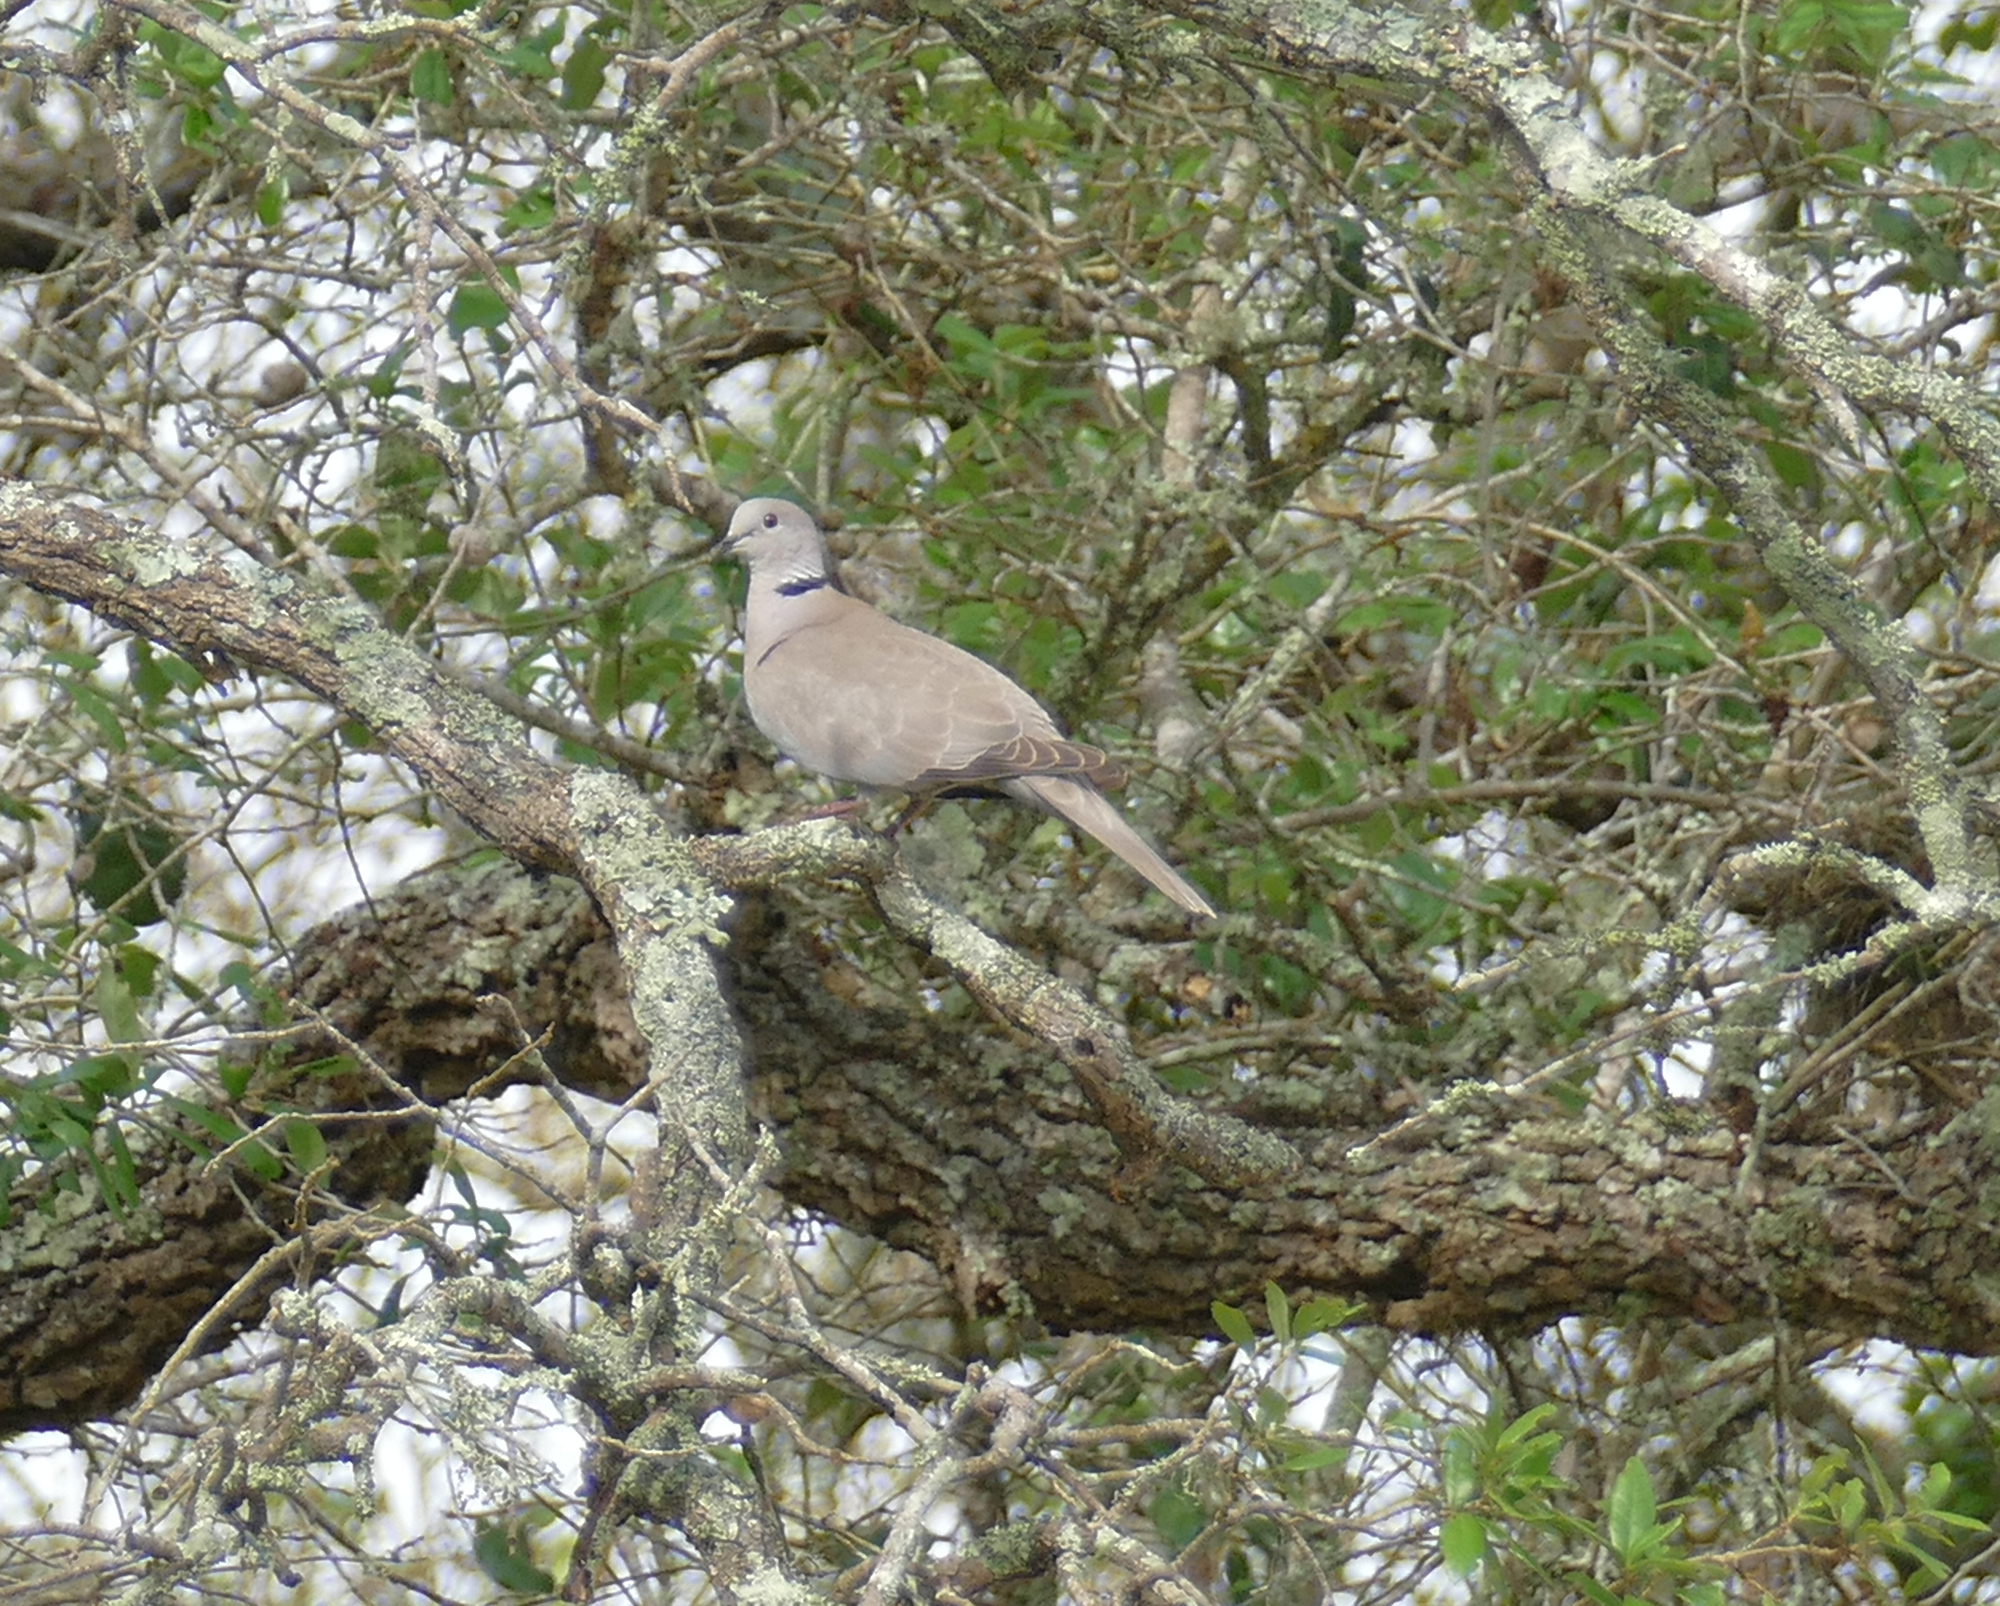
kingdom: Animalia
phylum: Chordata
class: Aves
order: Columbiformes
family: Columbidae
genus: Streptopelia
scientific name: Streptopelia decaocto
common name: Eurasian collared dove
